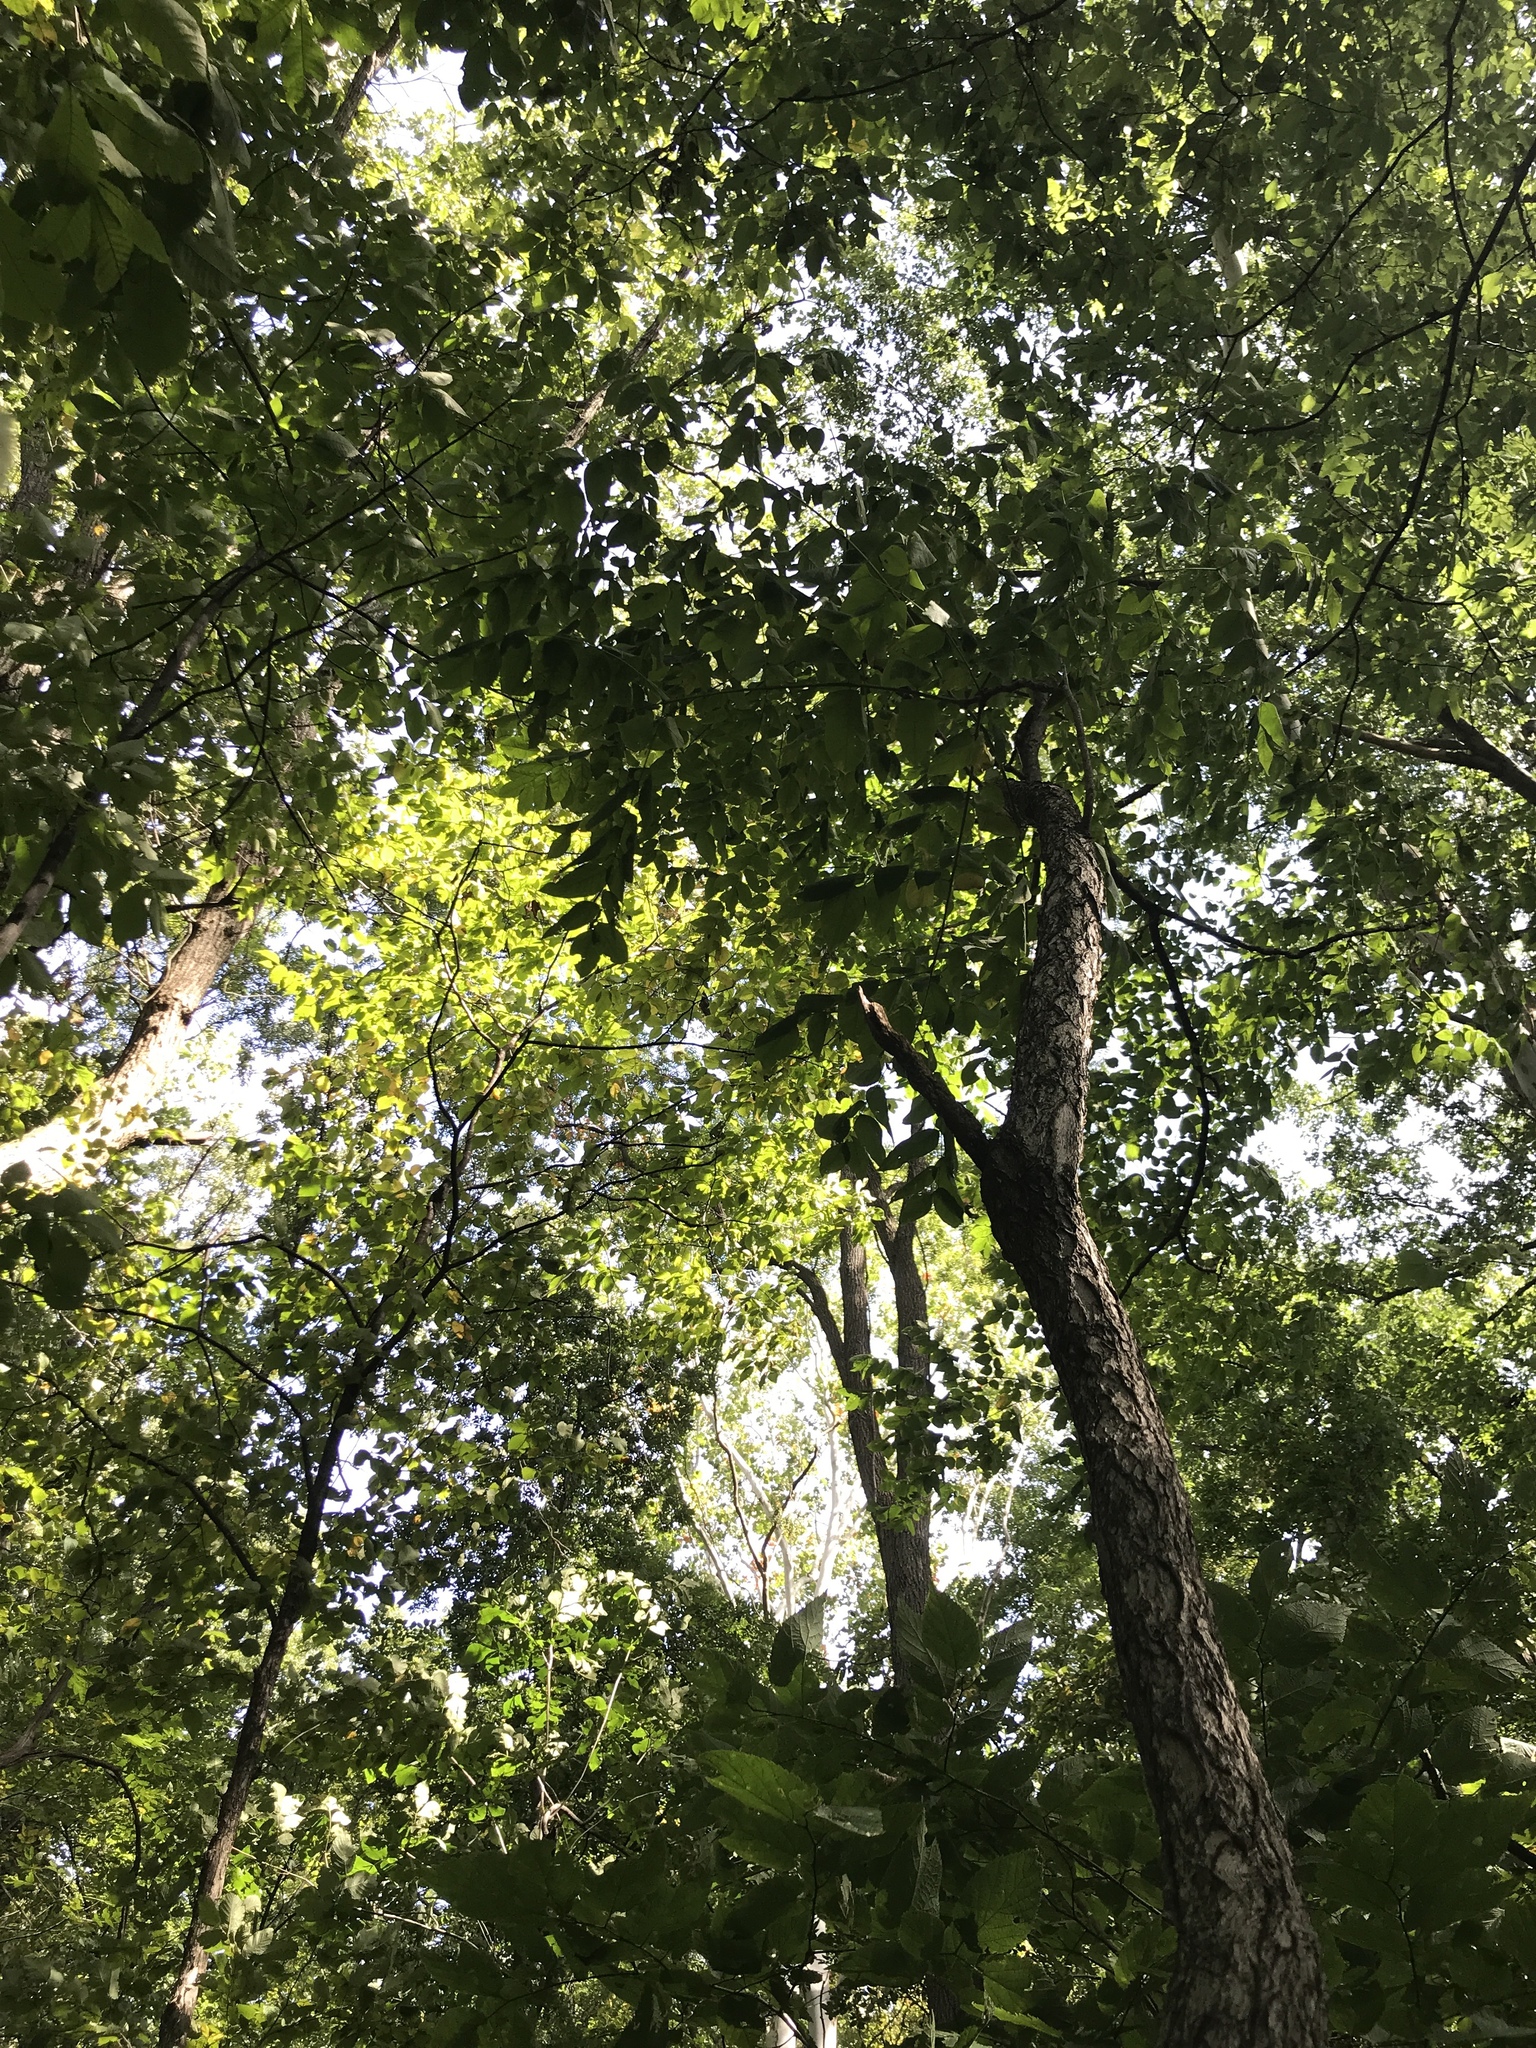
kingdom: Plantae
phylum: Tracheophyta
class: Magnoliopsida
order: Fabales
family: Fabaceae
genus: Gymnocladus
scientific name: Gymnocladus dioicus
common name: Kentucky coffee-tree
